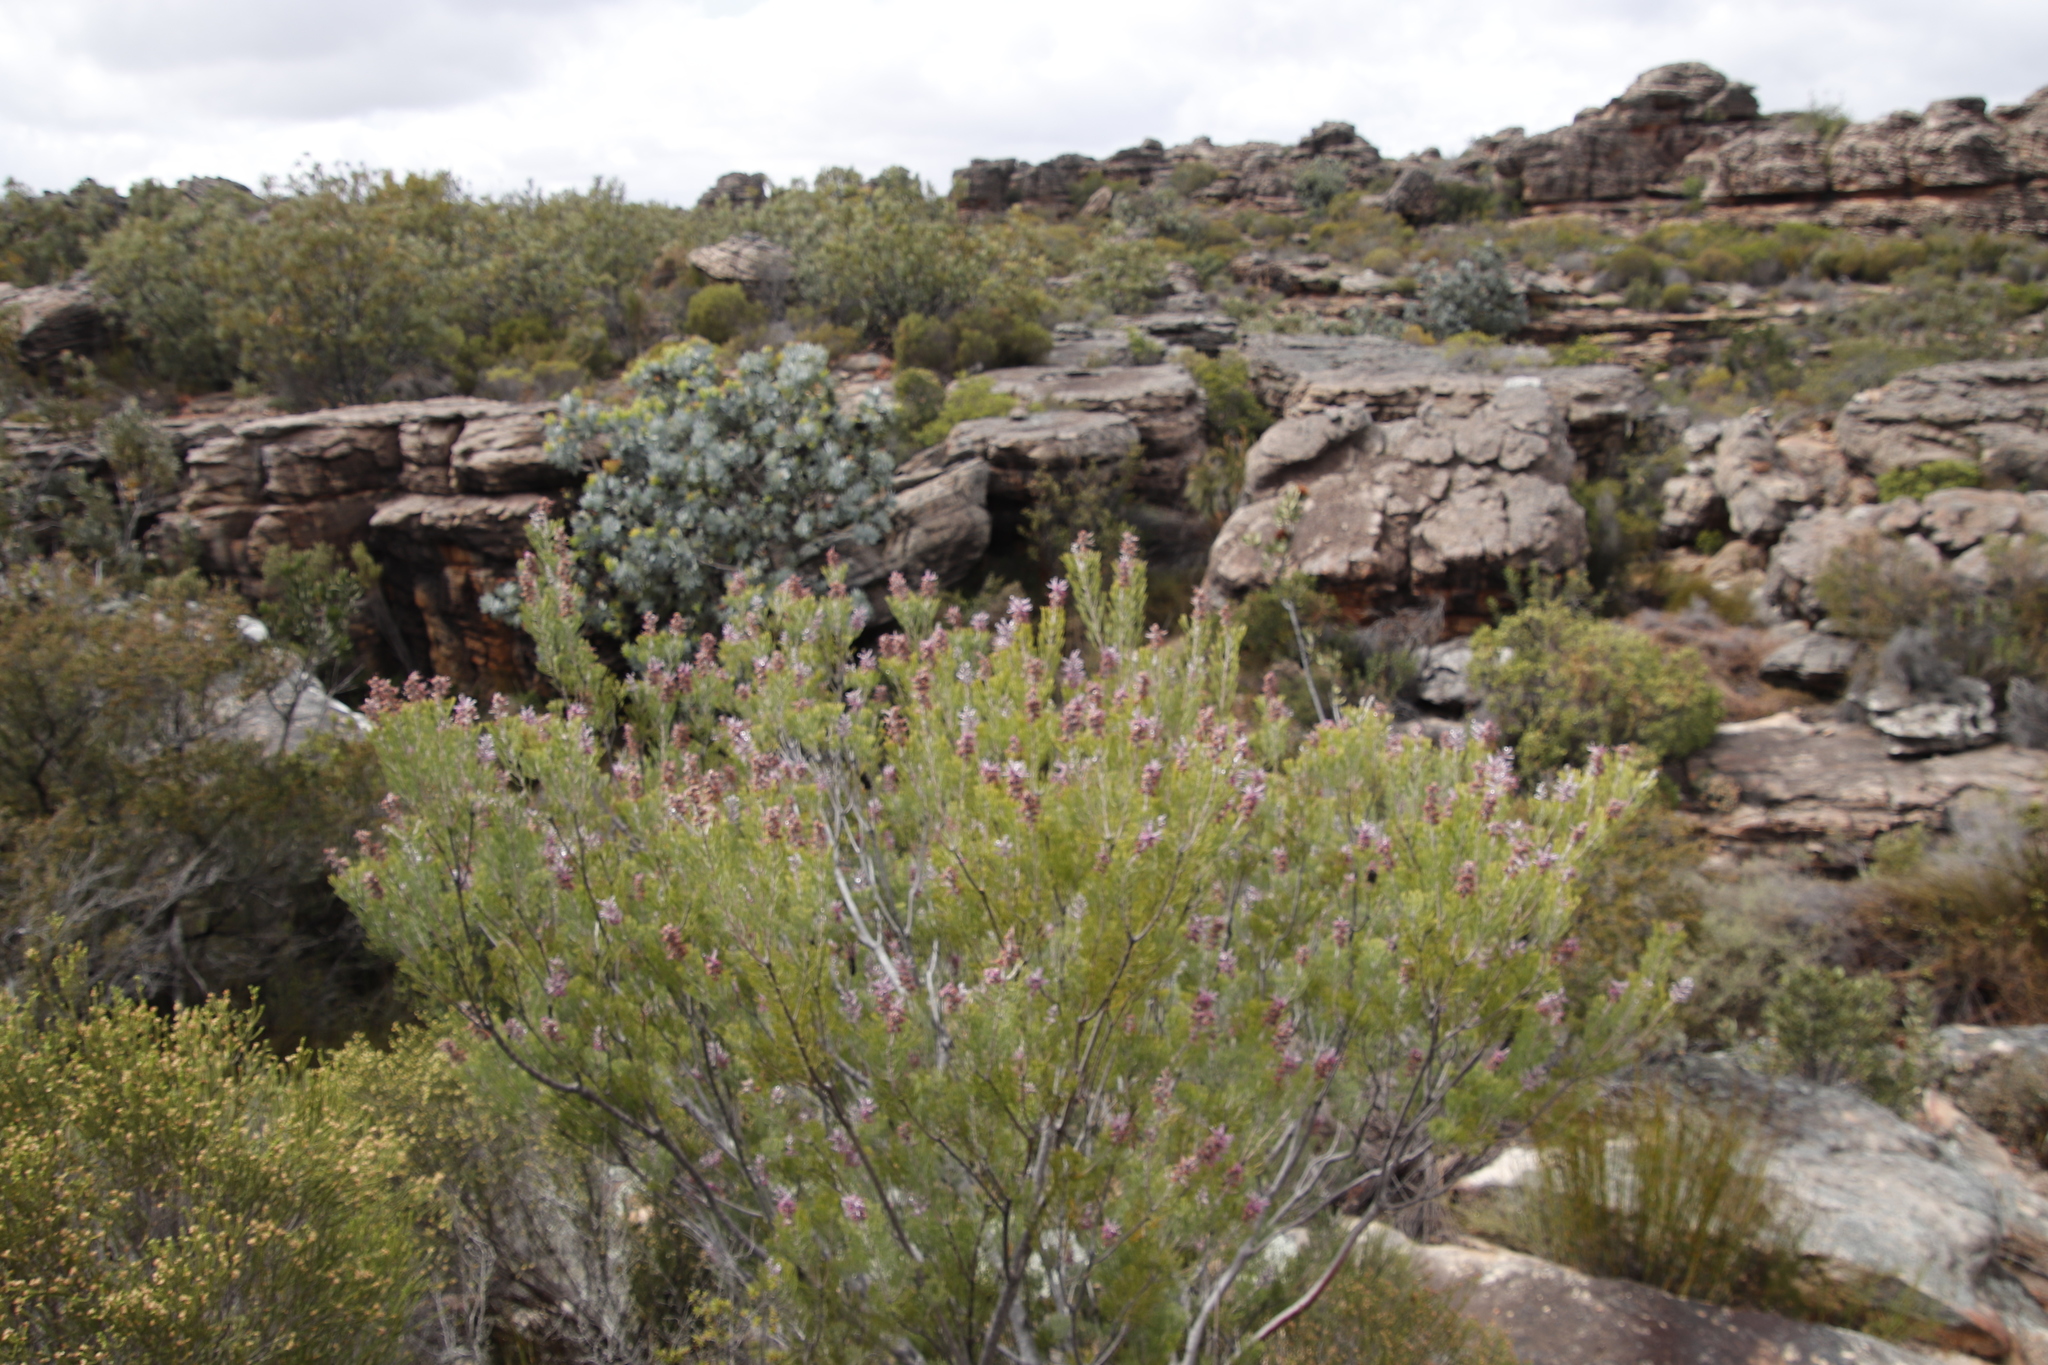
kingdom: Plantae
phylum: Tracheophyta
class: Magnoliopsida
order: Proteales
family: Proteaceae
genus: Paranomus
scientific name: Paranomus bracteolaris
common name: Bokkeveld tree sceptre
